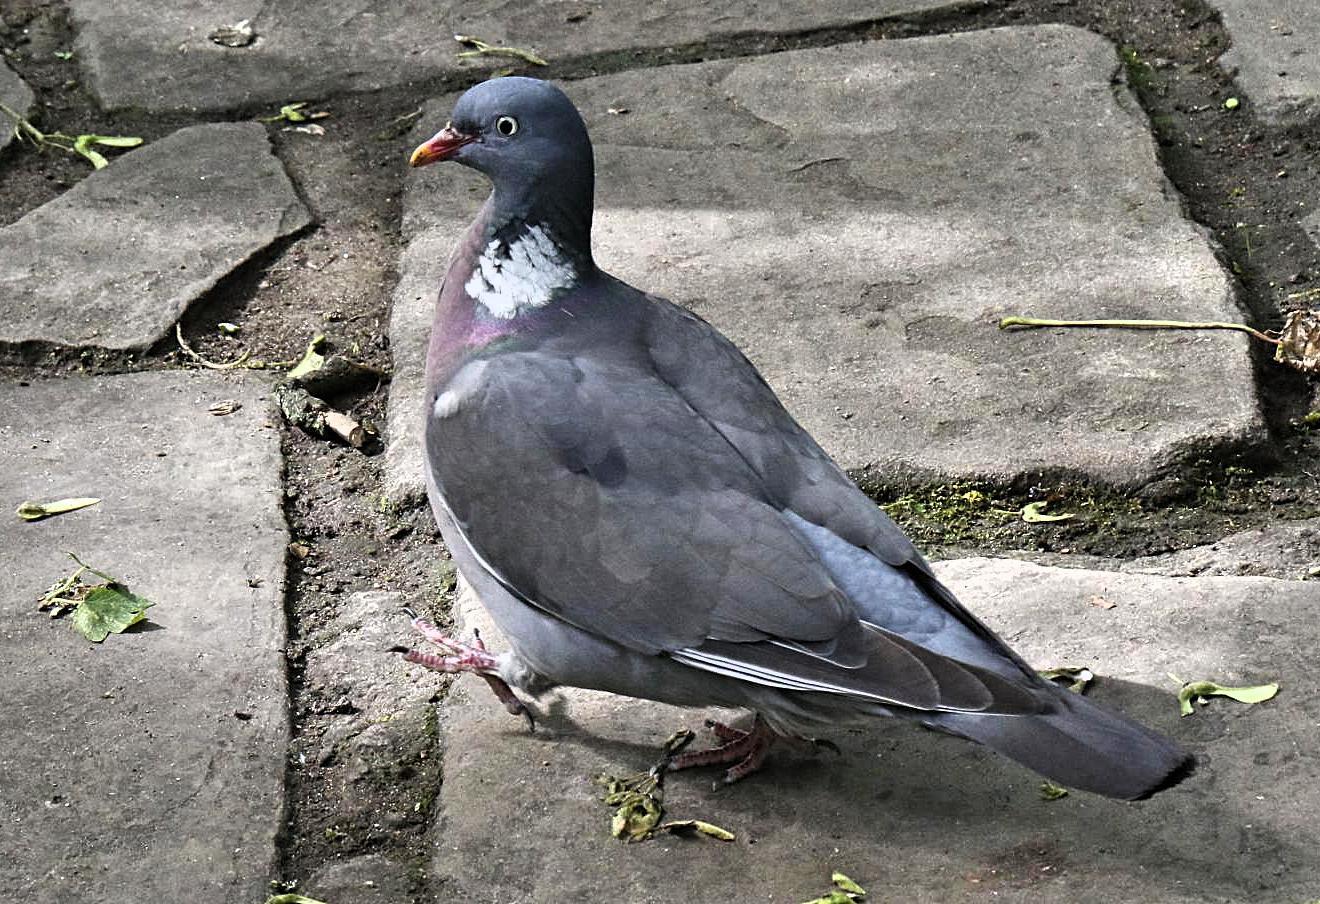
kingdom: Animalia
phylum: Chordata
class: Aves
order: Columbiformes
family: Columbidae
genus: Columba
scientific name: Columba palumbus
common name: Common wood pigeon
